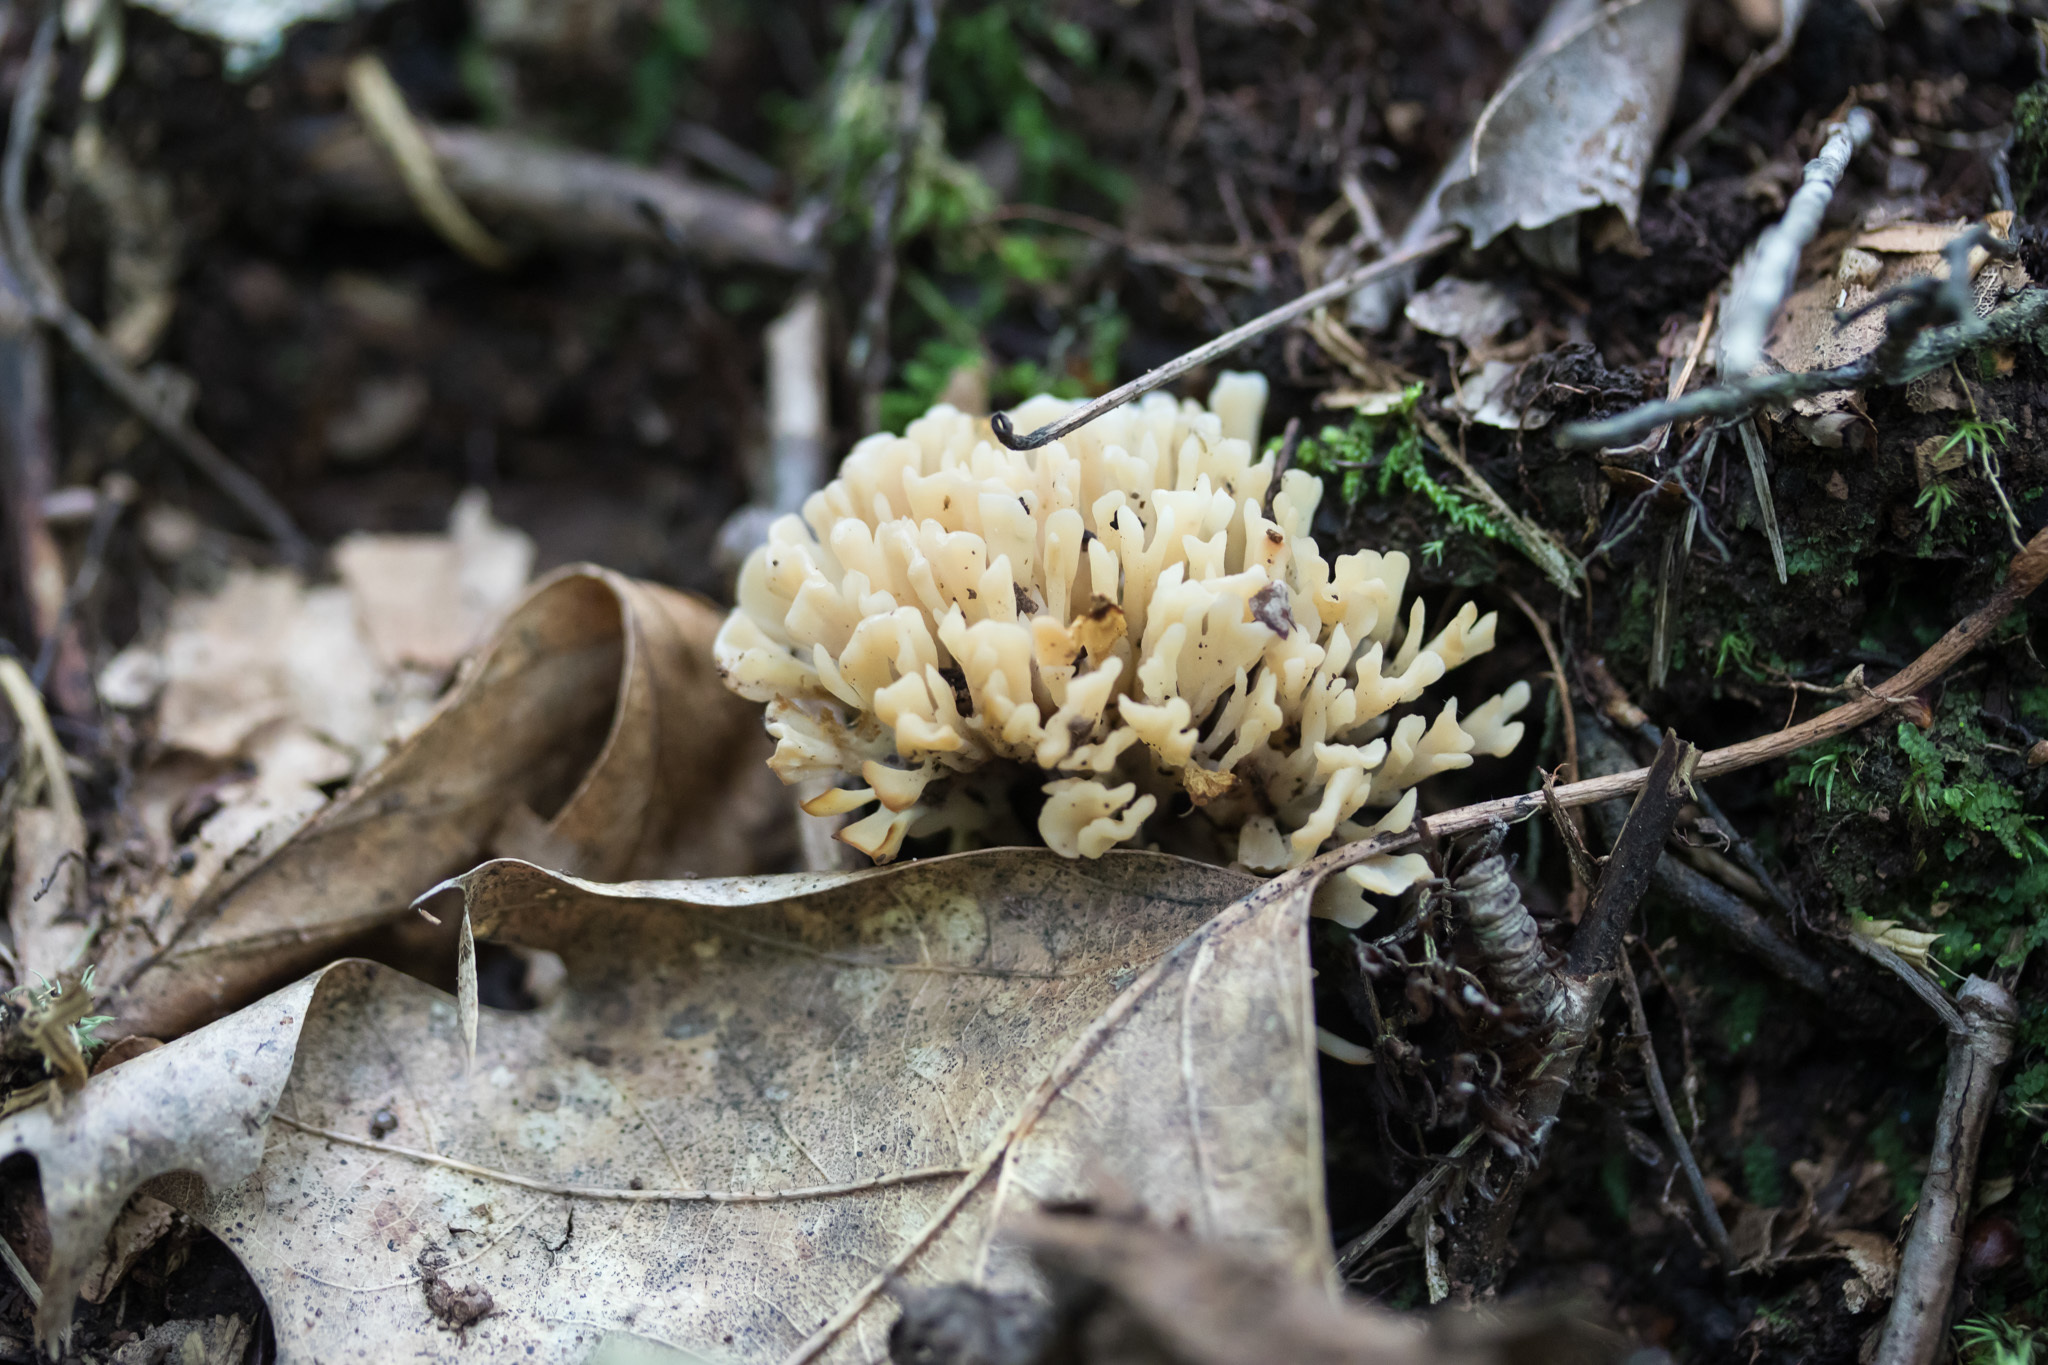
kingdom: Fungi
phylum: Basidiomycota
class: Agaricomycetes
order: Sebacinales
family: Sebacinaceae
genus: Sebacina
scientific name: Sebacina schweinitzii
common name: Jellied false coral fungus
